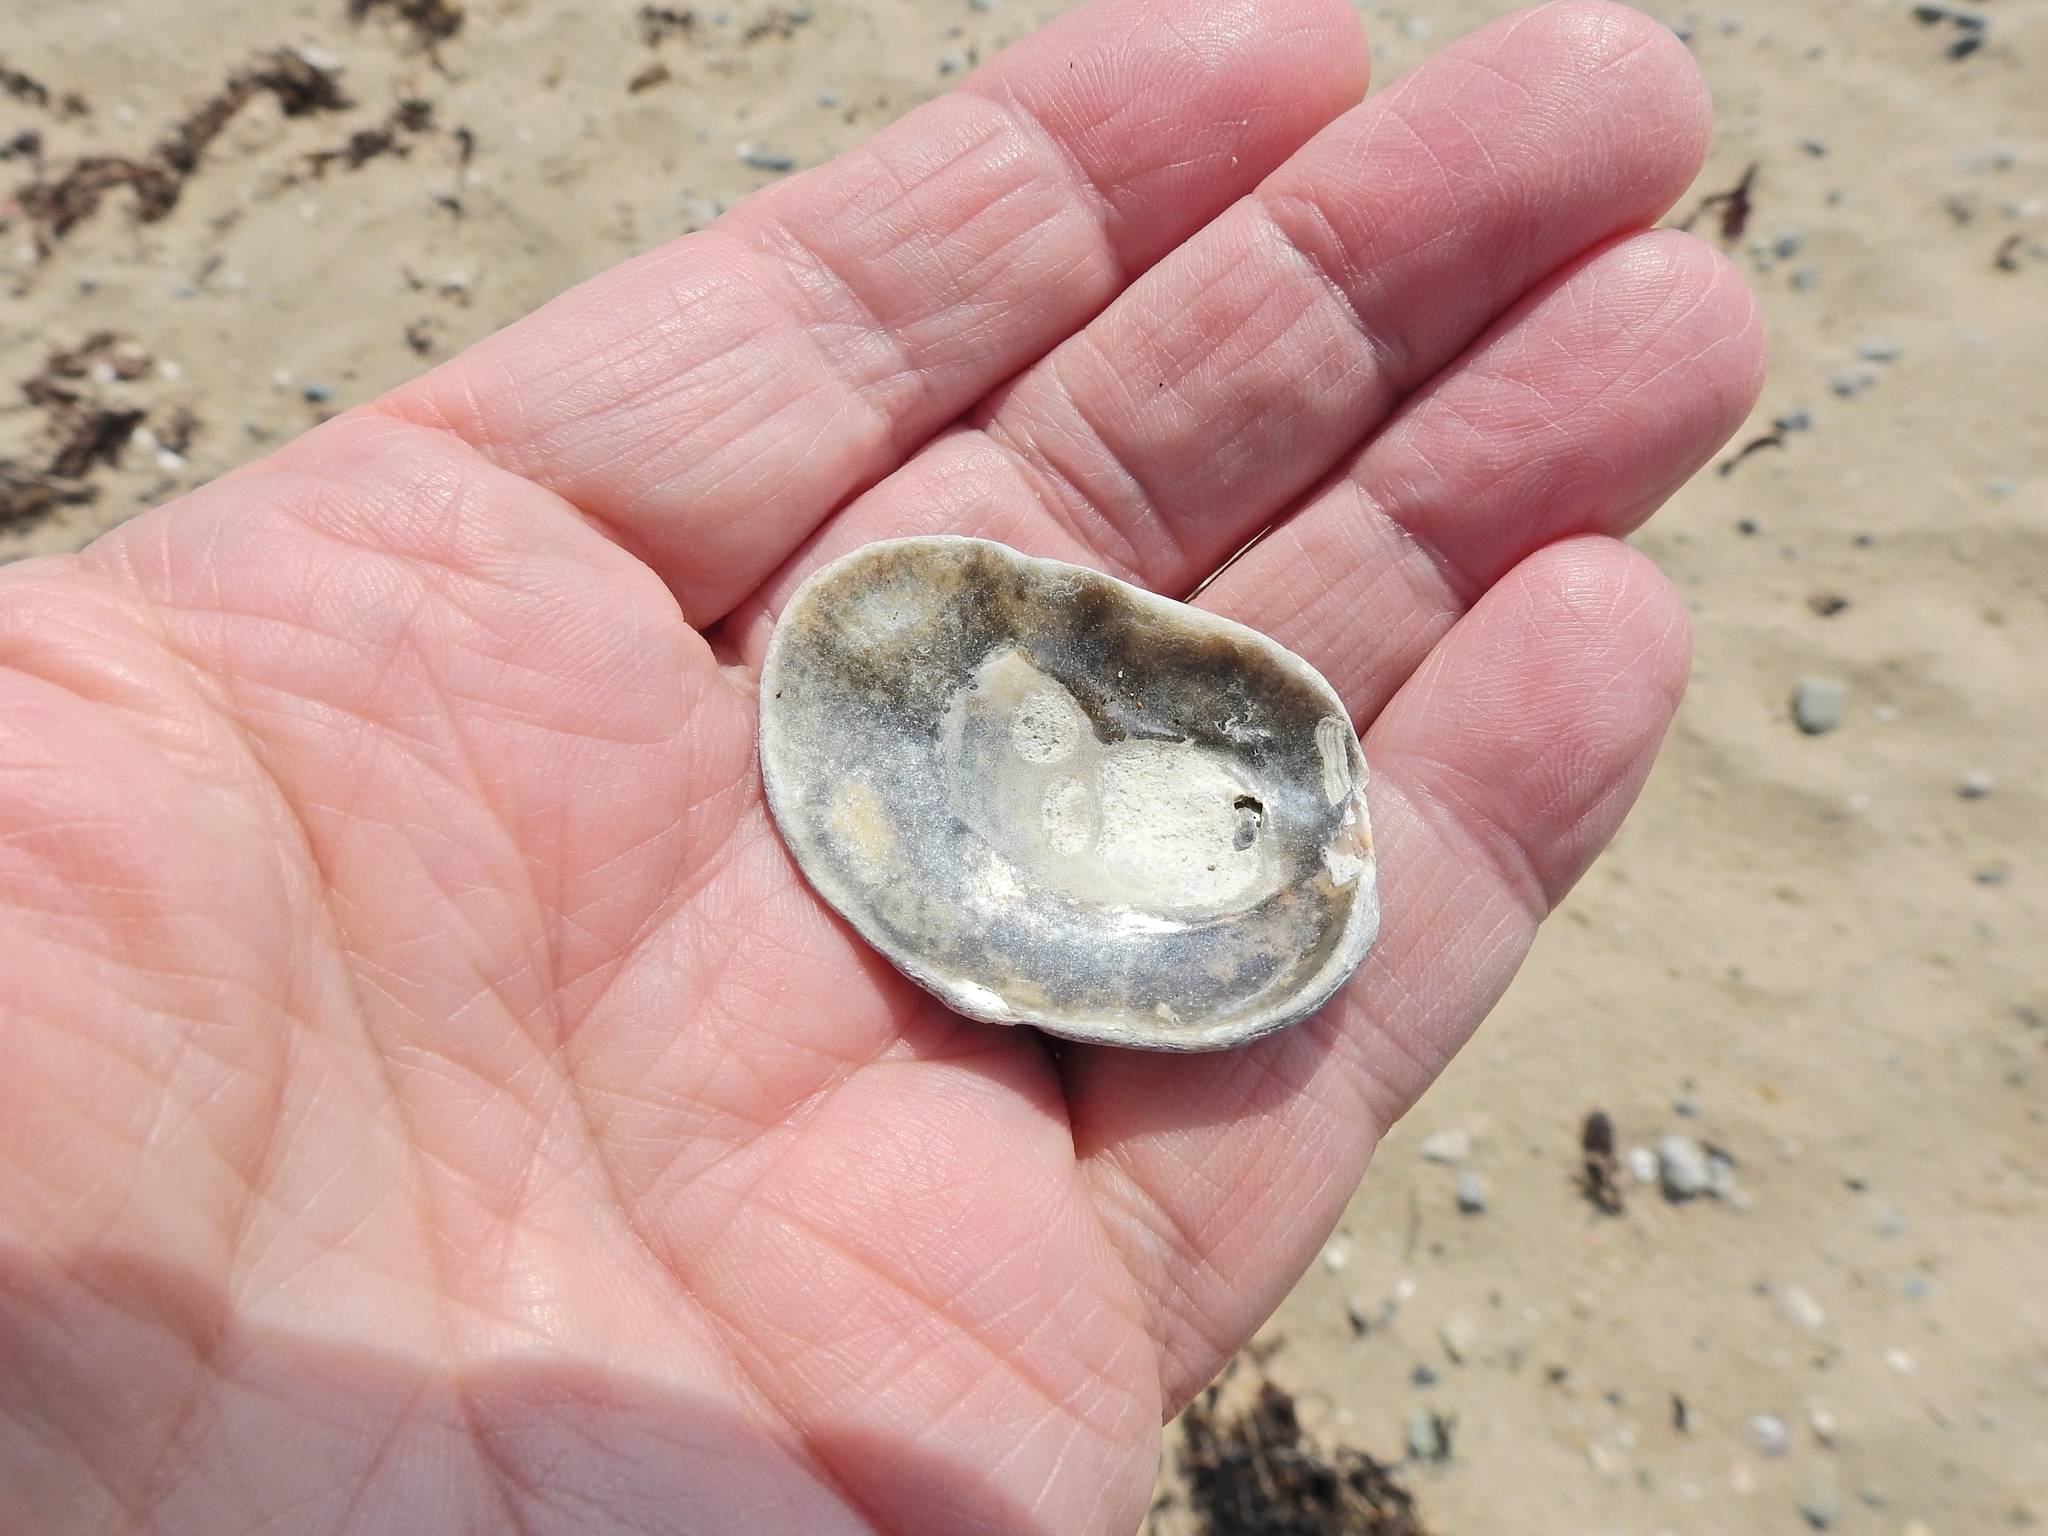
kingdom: Animalia
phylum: Mollusca
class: Bivalvia
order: Ostreida
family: Ostreidae
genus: Ostrea
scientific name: Ostrea edulis
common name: Flat oyster
